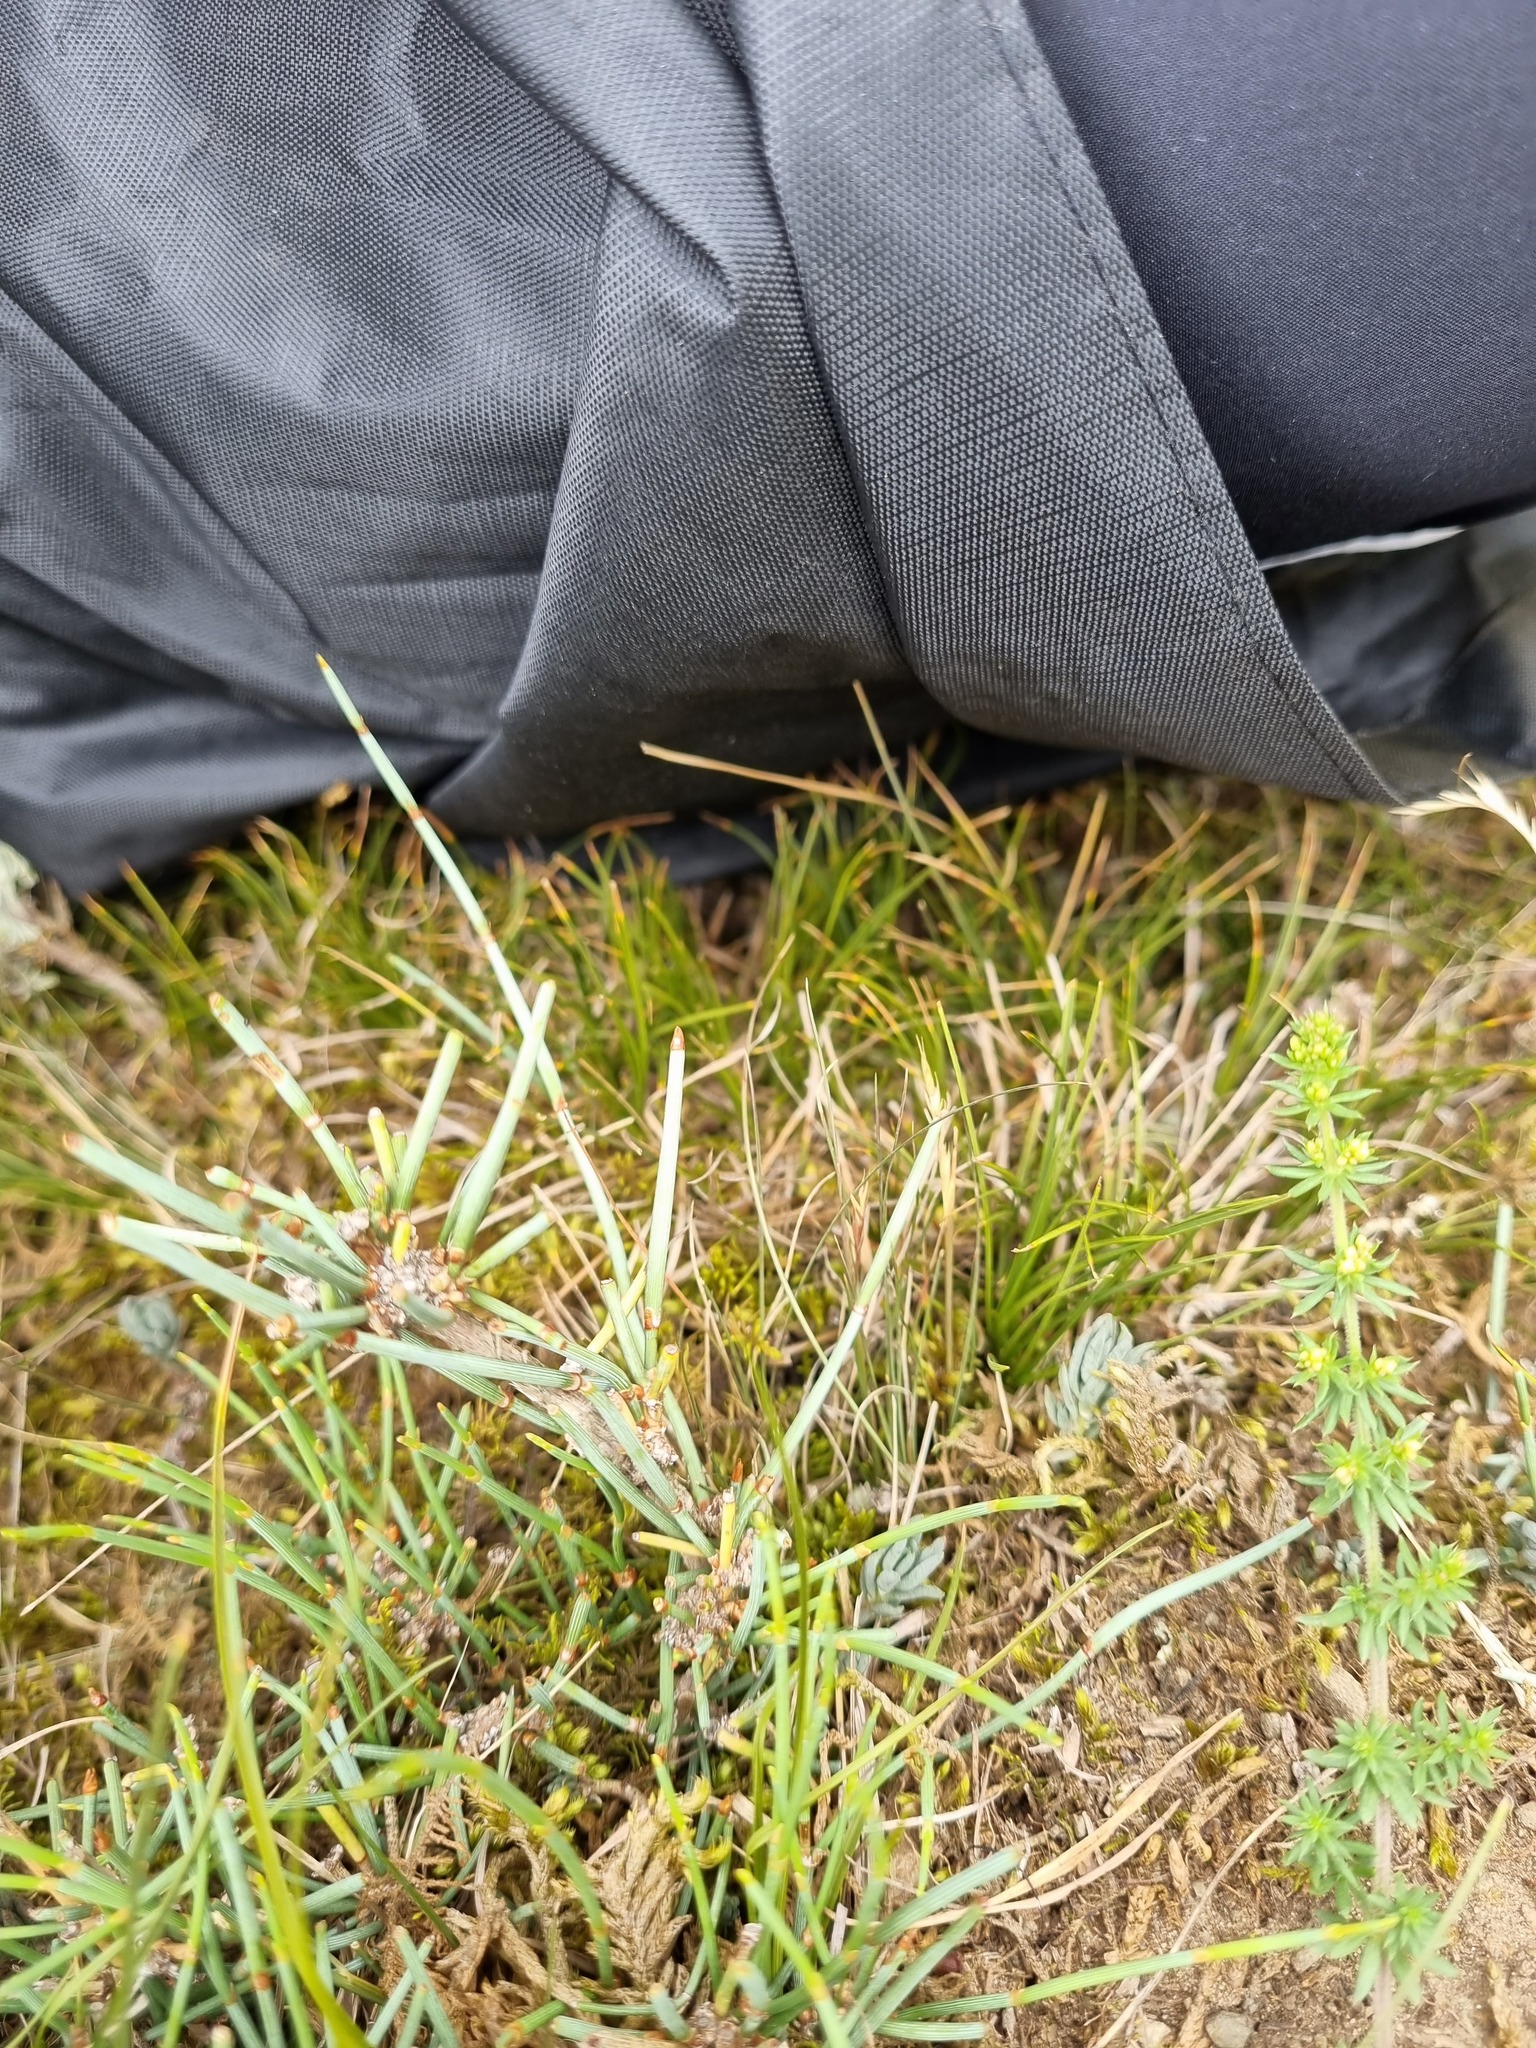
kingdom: Plantae
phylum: Tracheophyta
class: Gnetopsida
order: Ephedrales
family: Ephedraceae
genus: Ephedra
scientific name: Ephedra distachya
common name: Sea grape
